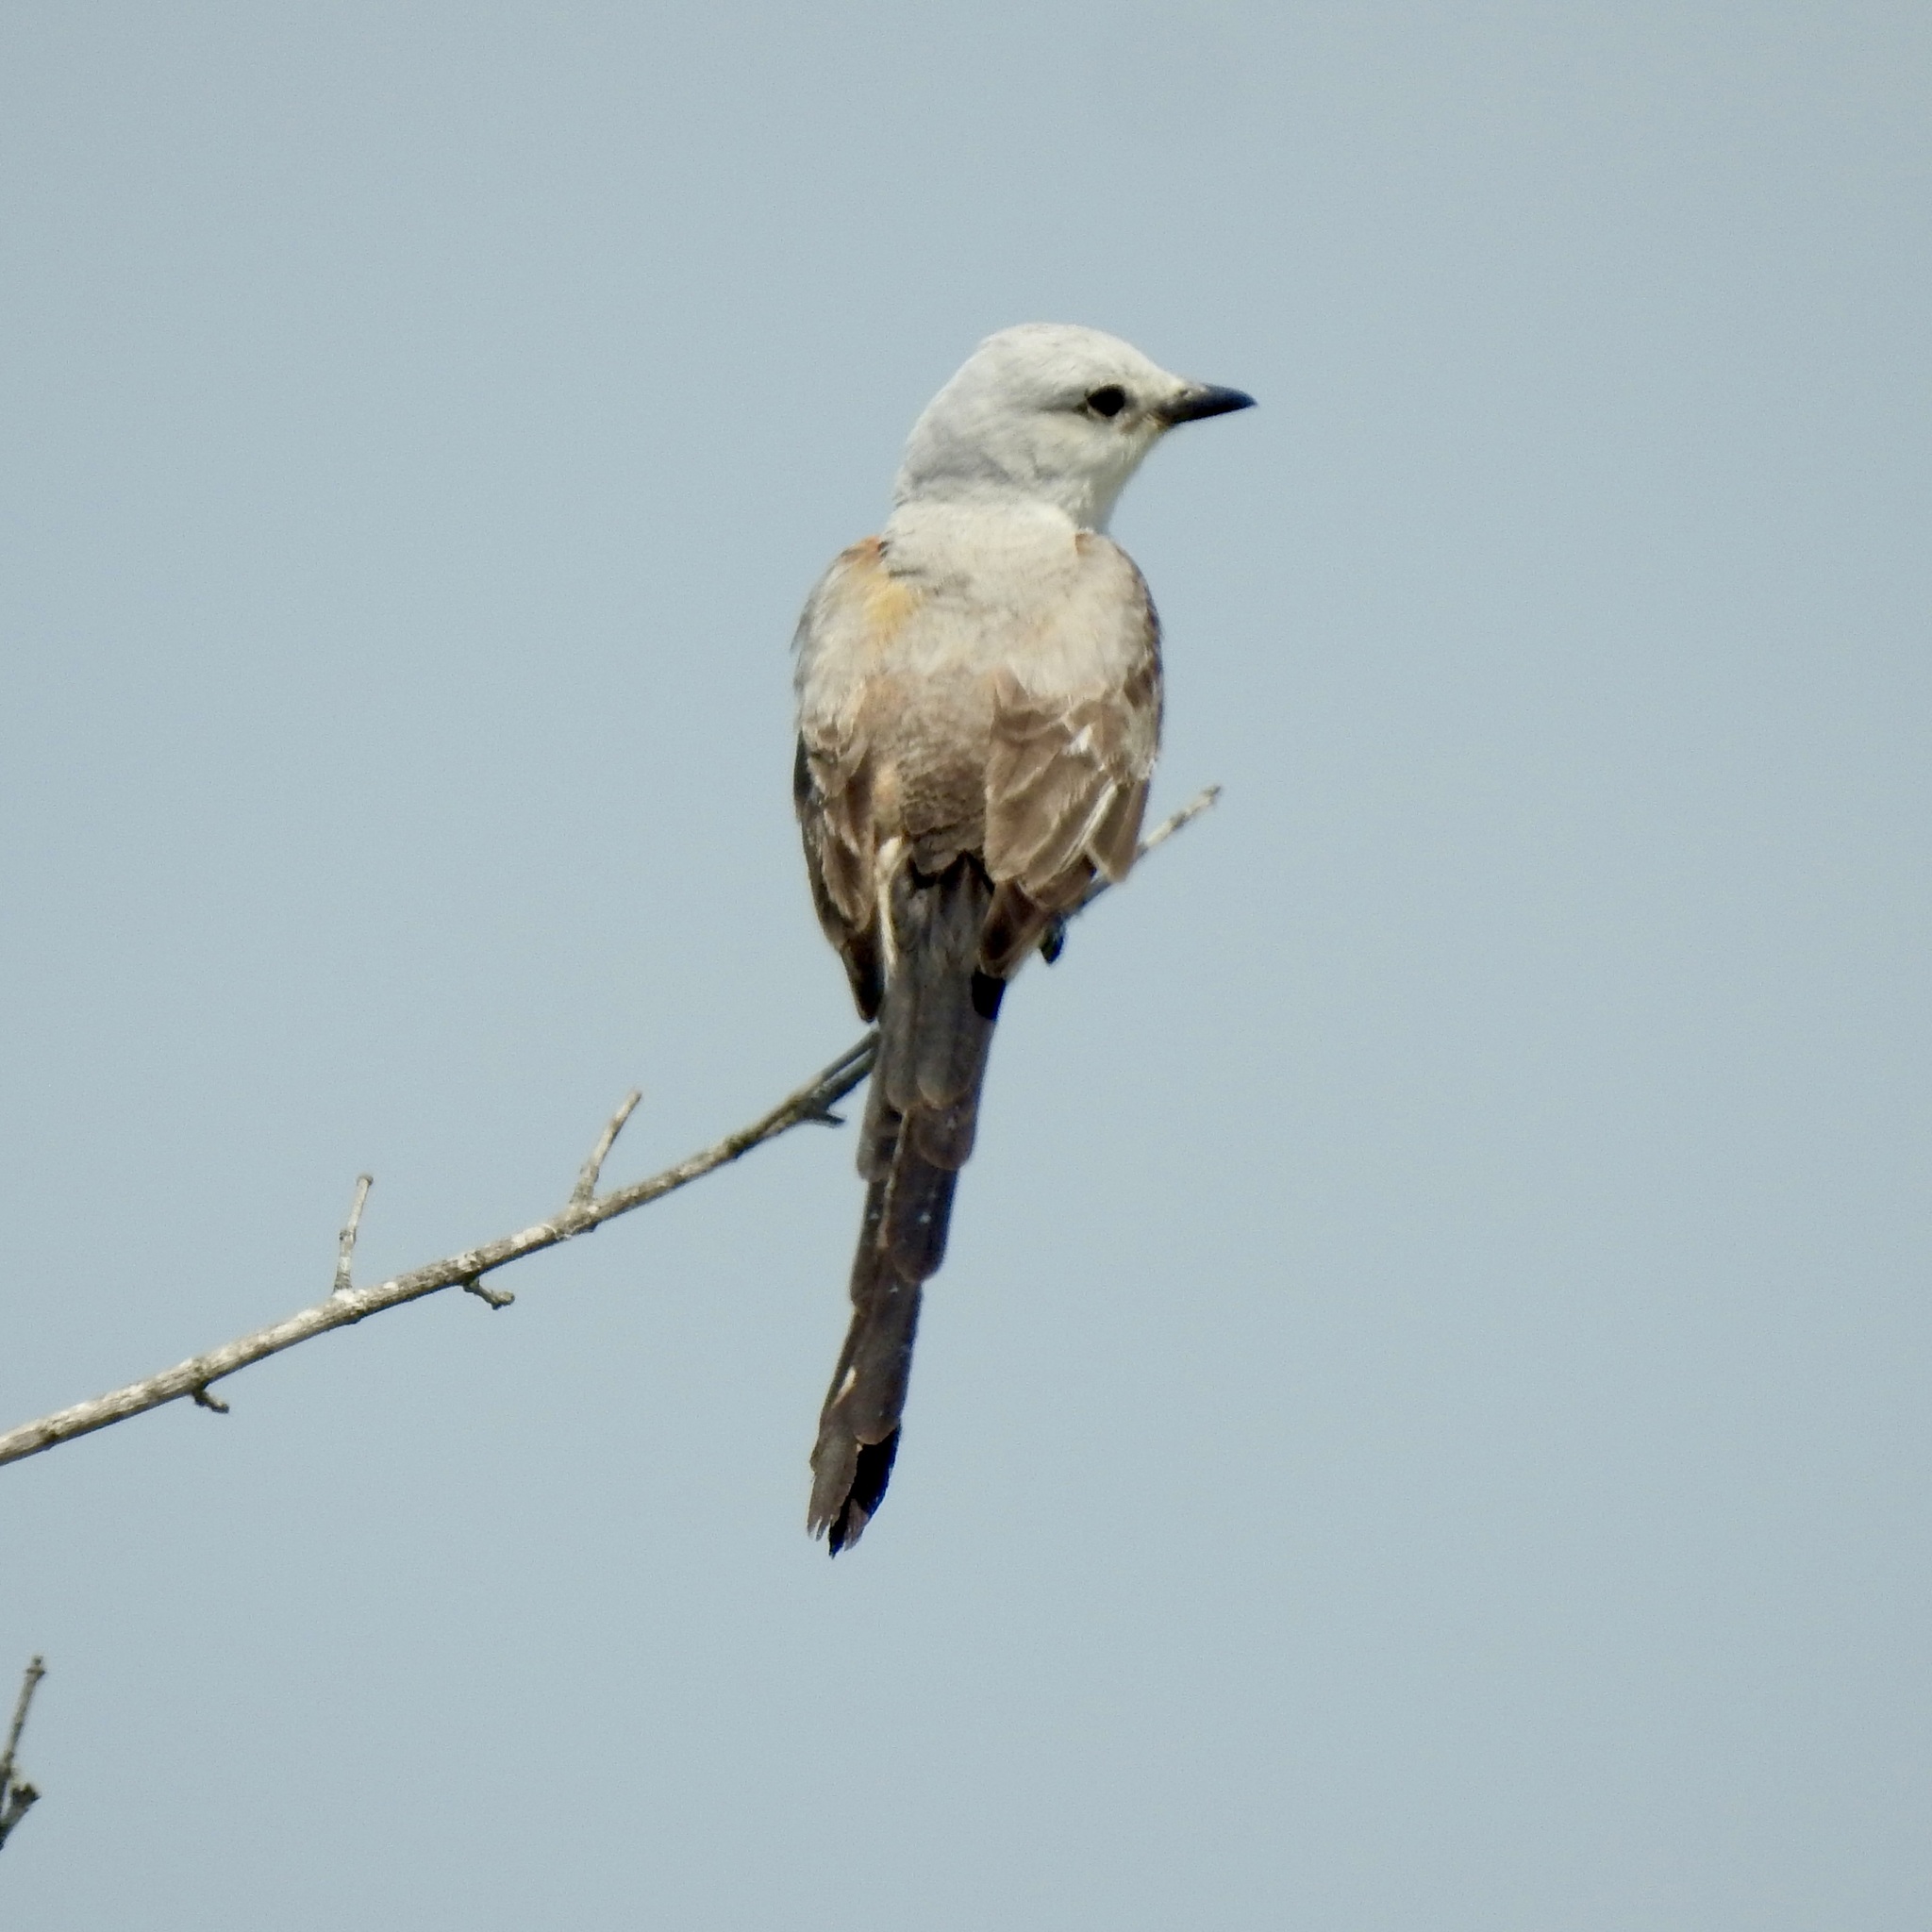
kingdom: Animalia
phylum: Chordata
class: Aves
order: Passeriformes
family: Tyrannidae
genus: Tyrannus
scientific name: Tyrannus forficatus
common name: Scissor-tailed flycatcher
